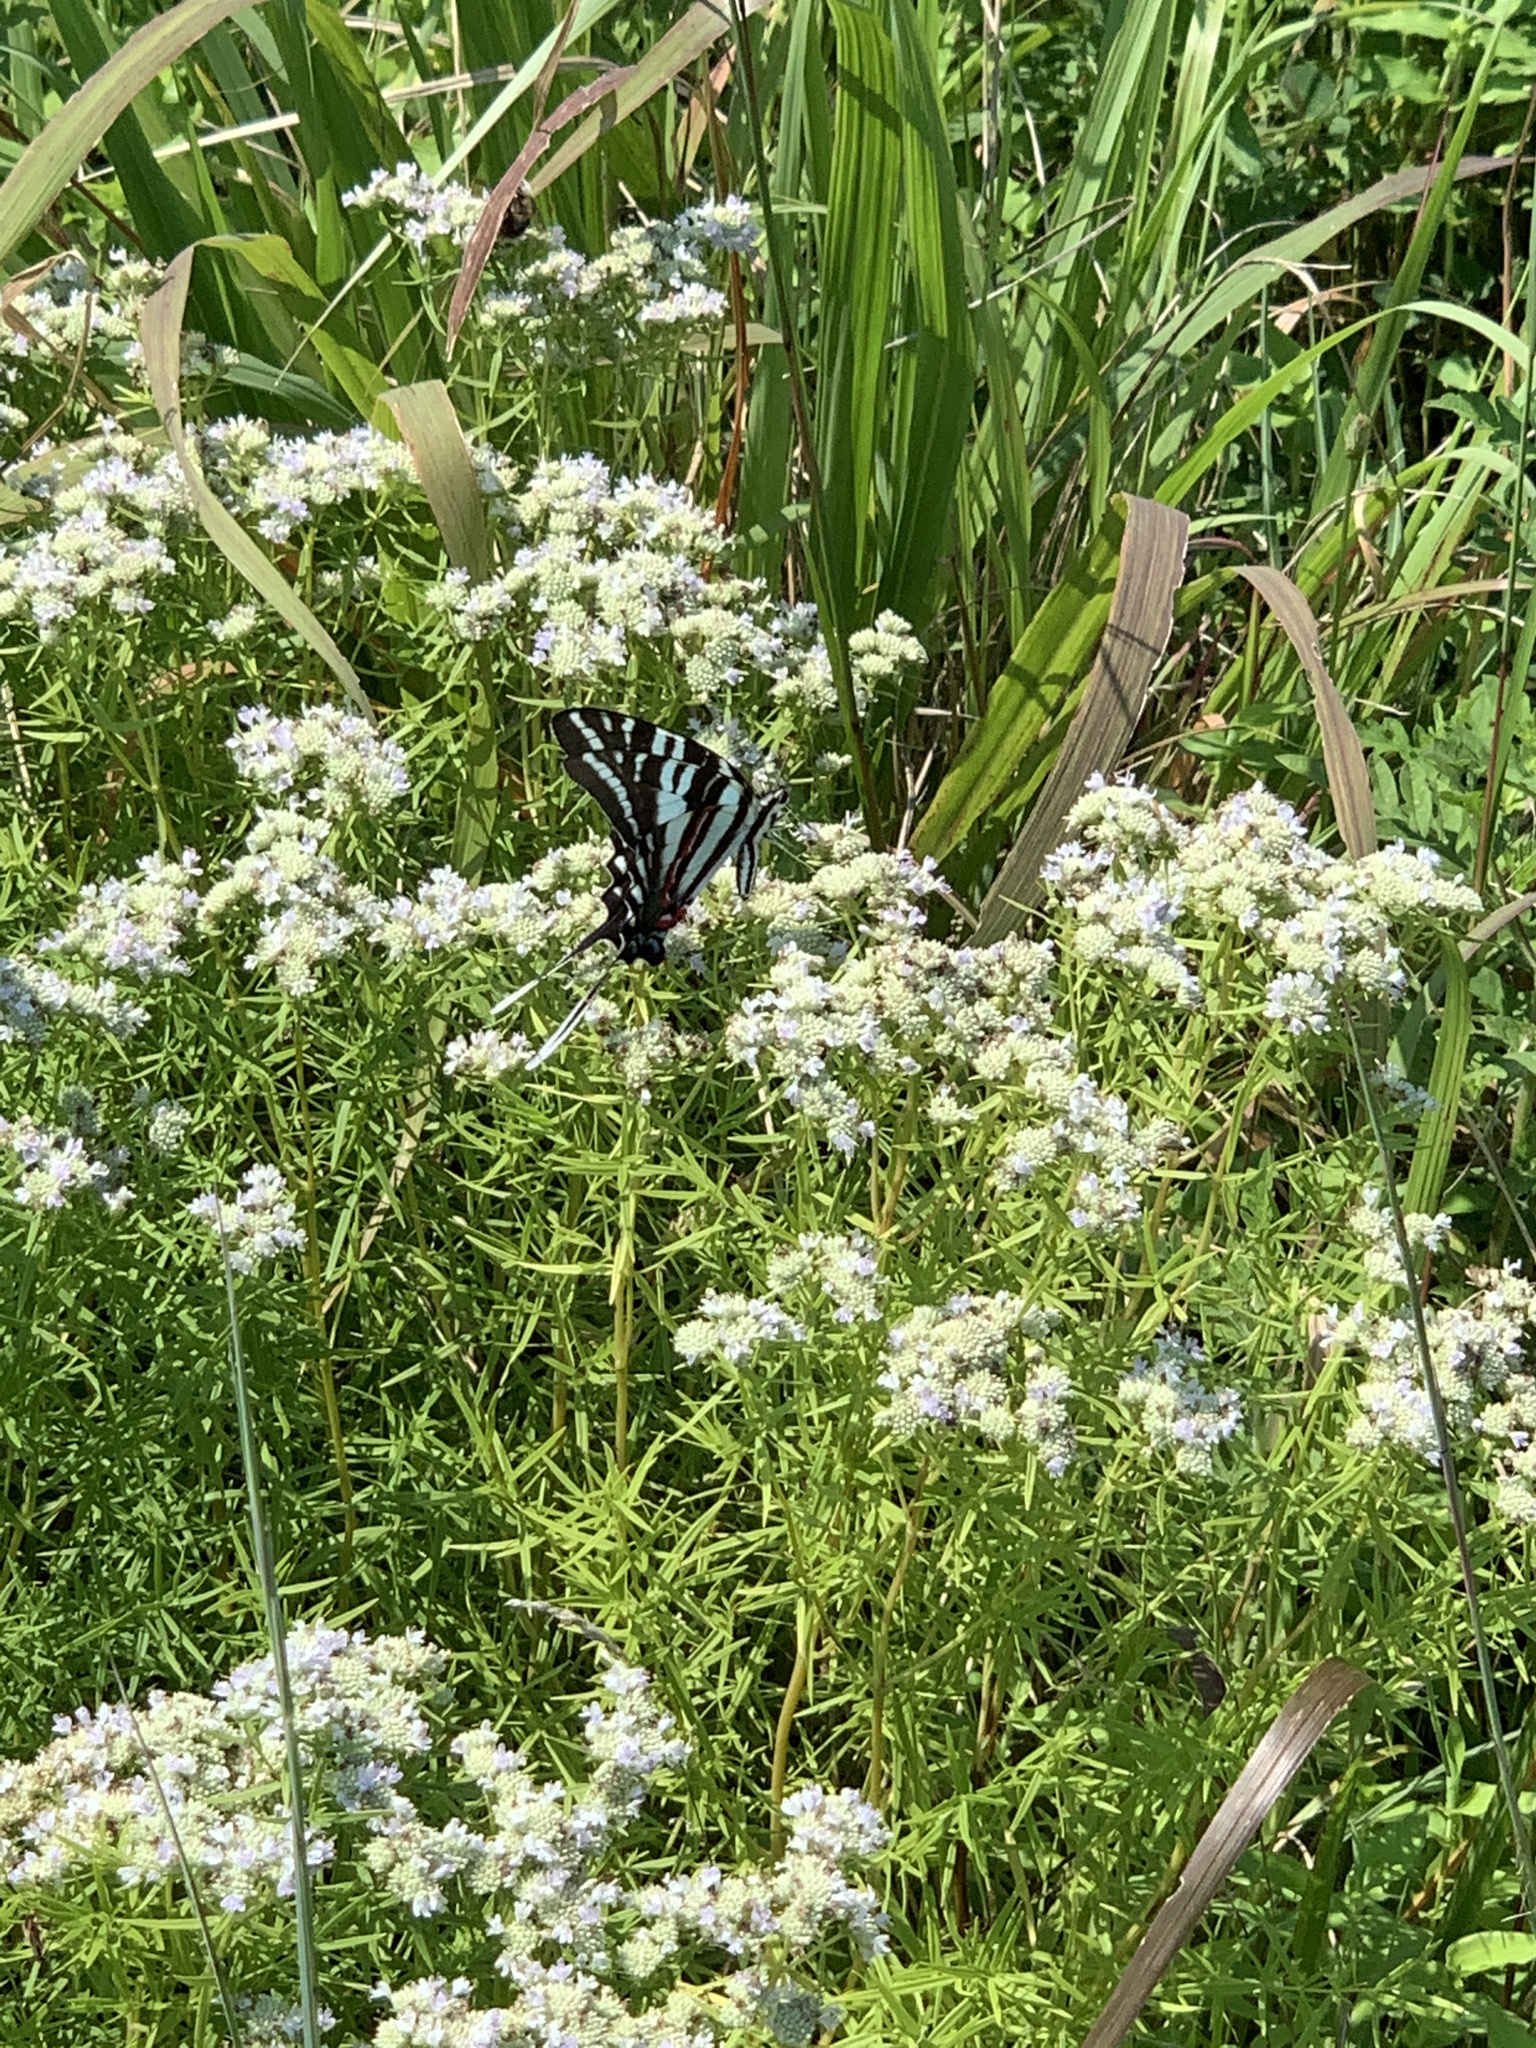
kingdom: Animalia
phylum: Arthropoda
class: Insecta
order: Lepidoptera
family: Papilionidae
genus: Protographium
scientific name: Protographium marcellus
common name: Zebra swallowtail
